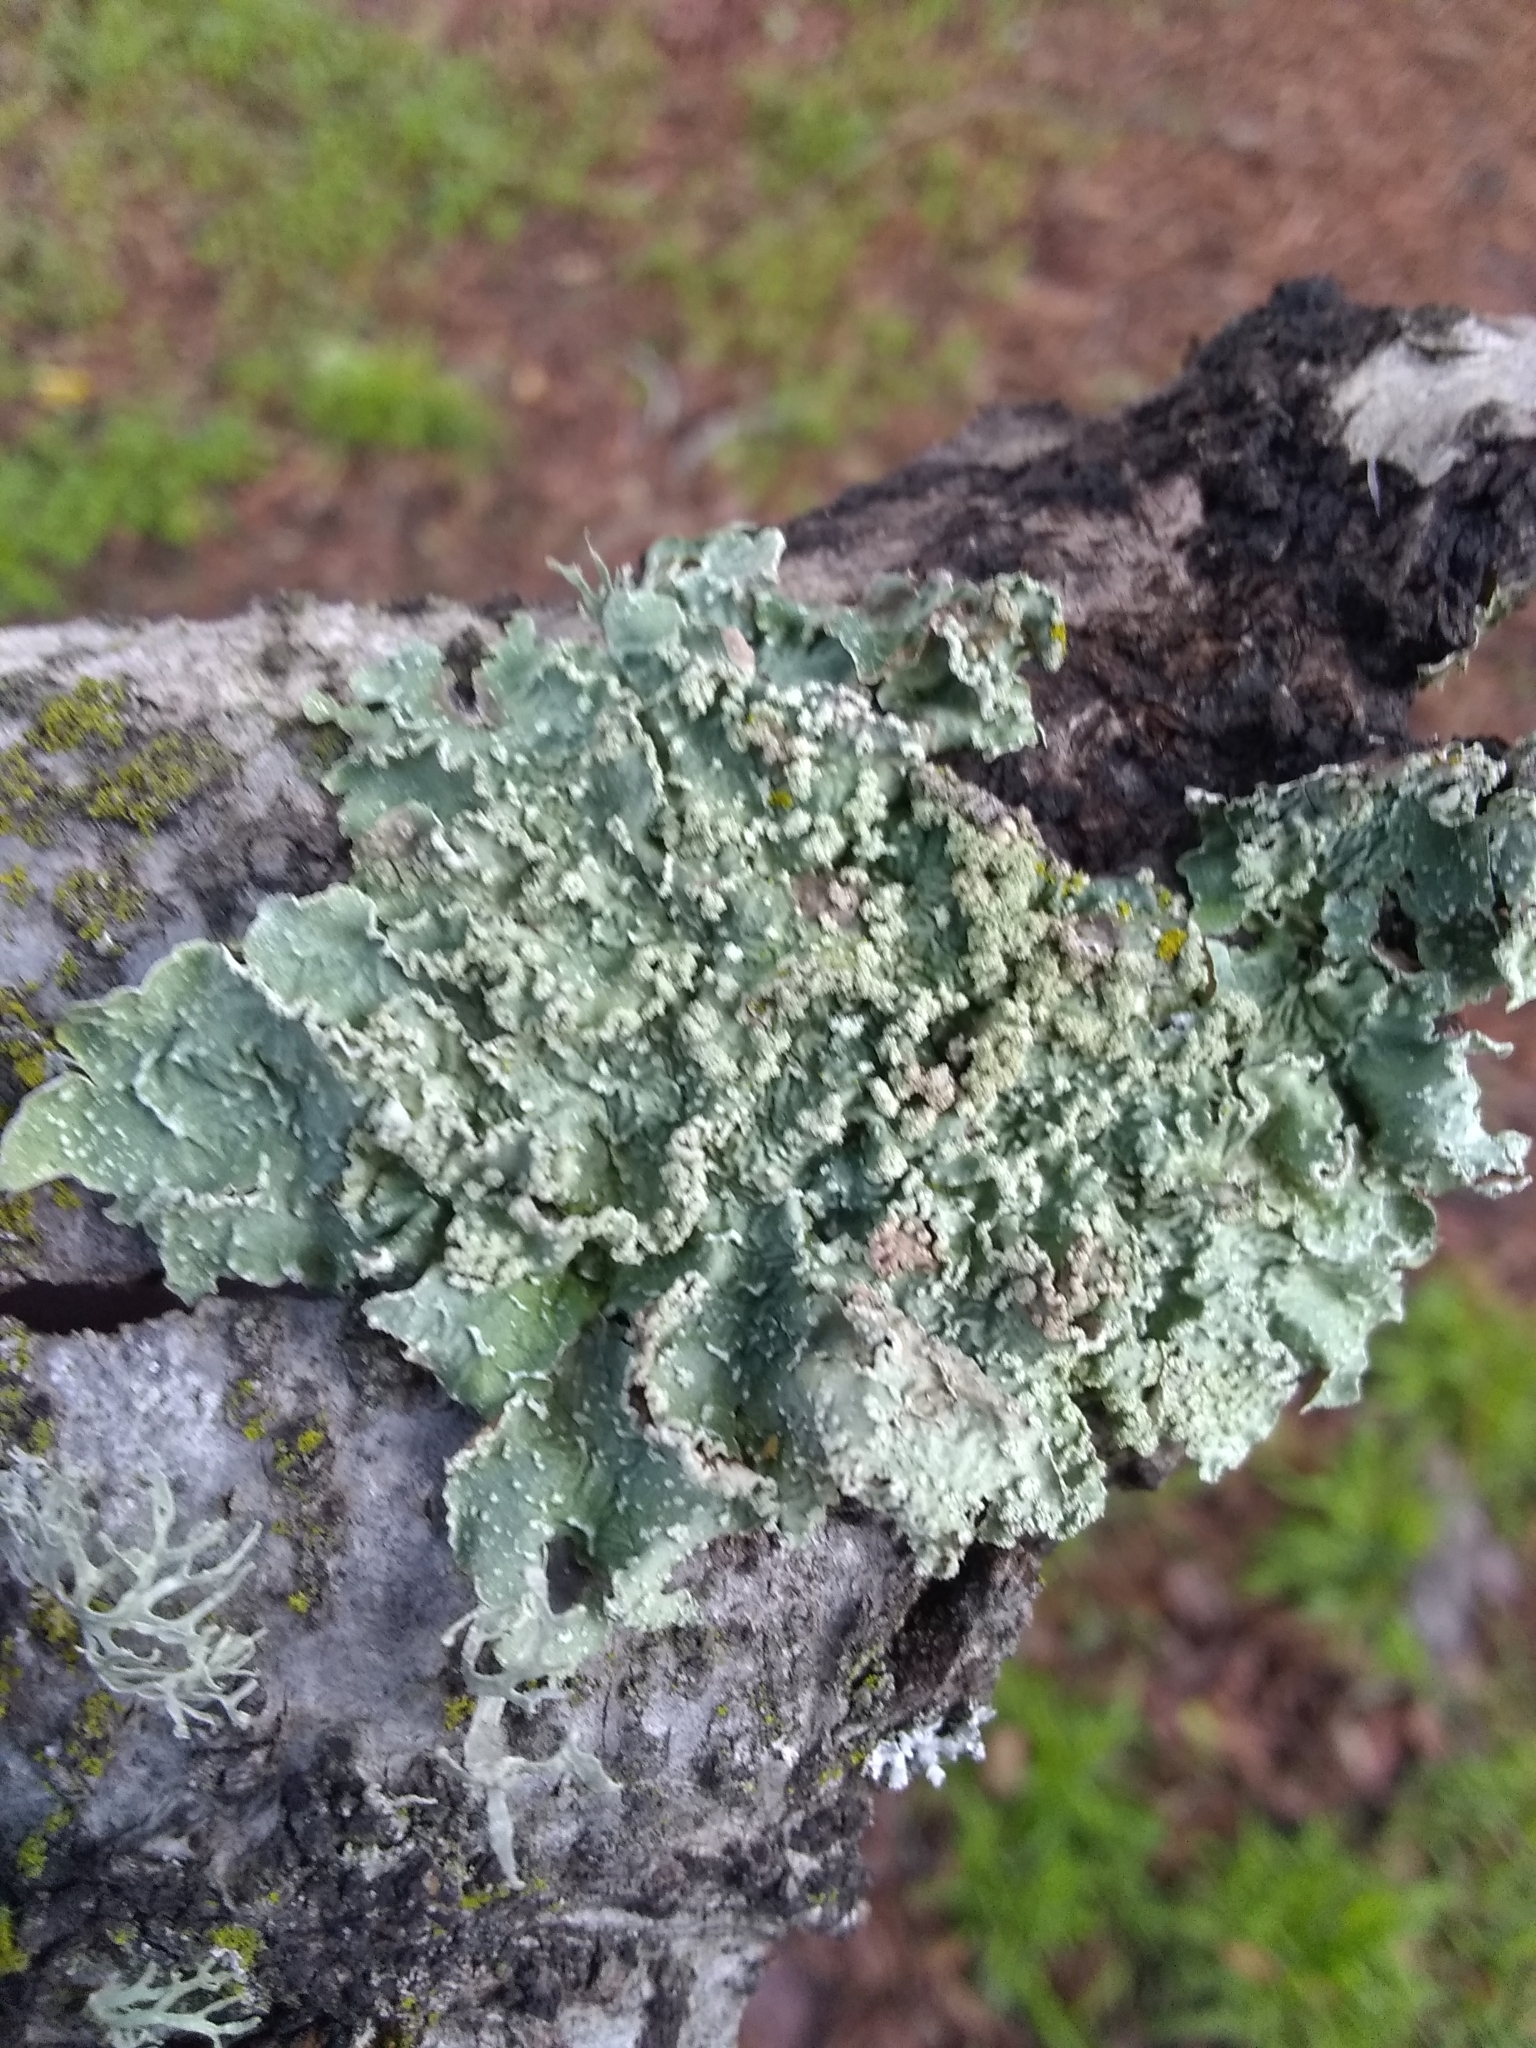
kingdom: Fungi
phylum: Ascomycota
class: Lecanoromycetes
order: Lecanorales
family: Parmeliaceae
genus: Flavopunctelia
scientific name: Flavopunctelia flaventior
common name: Speckled greenshield
